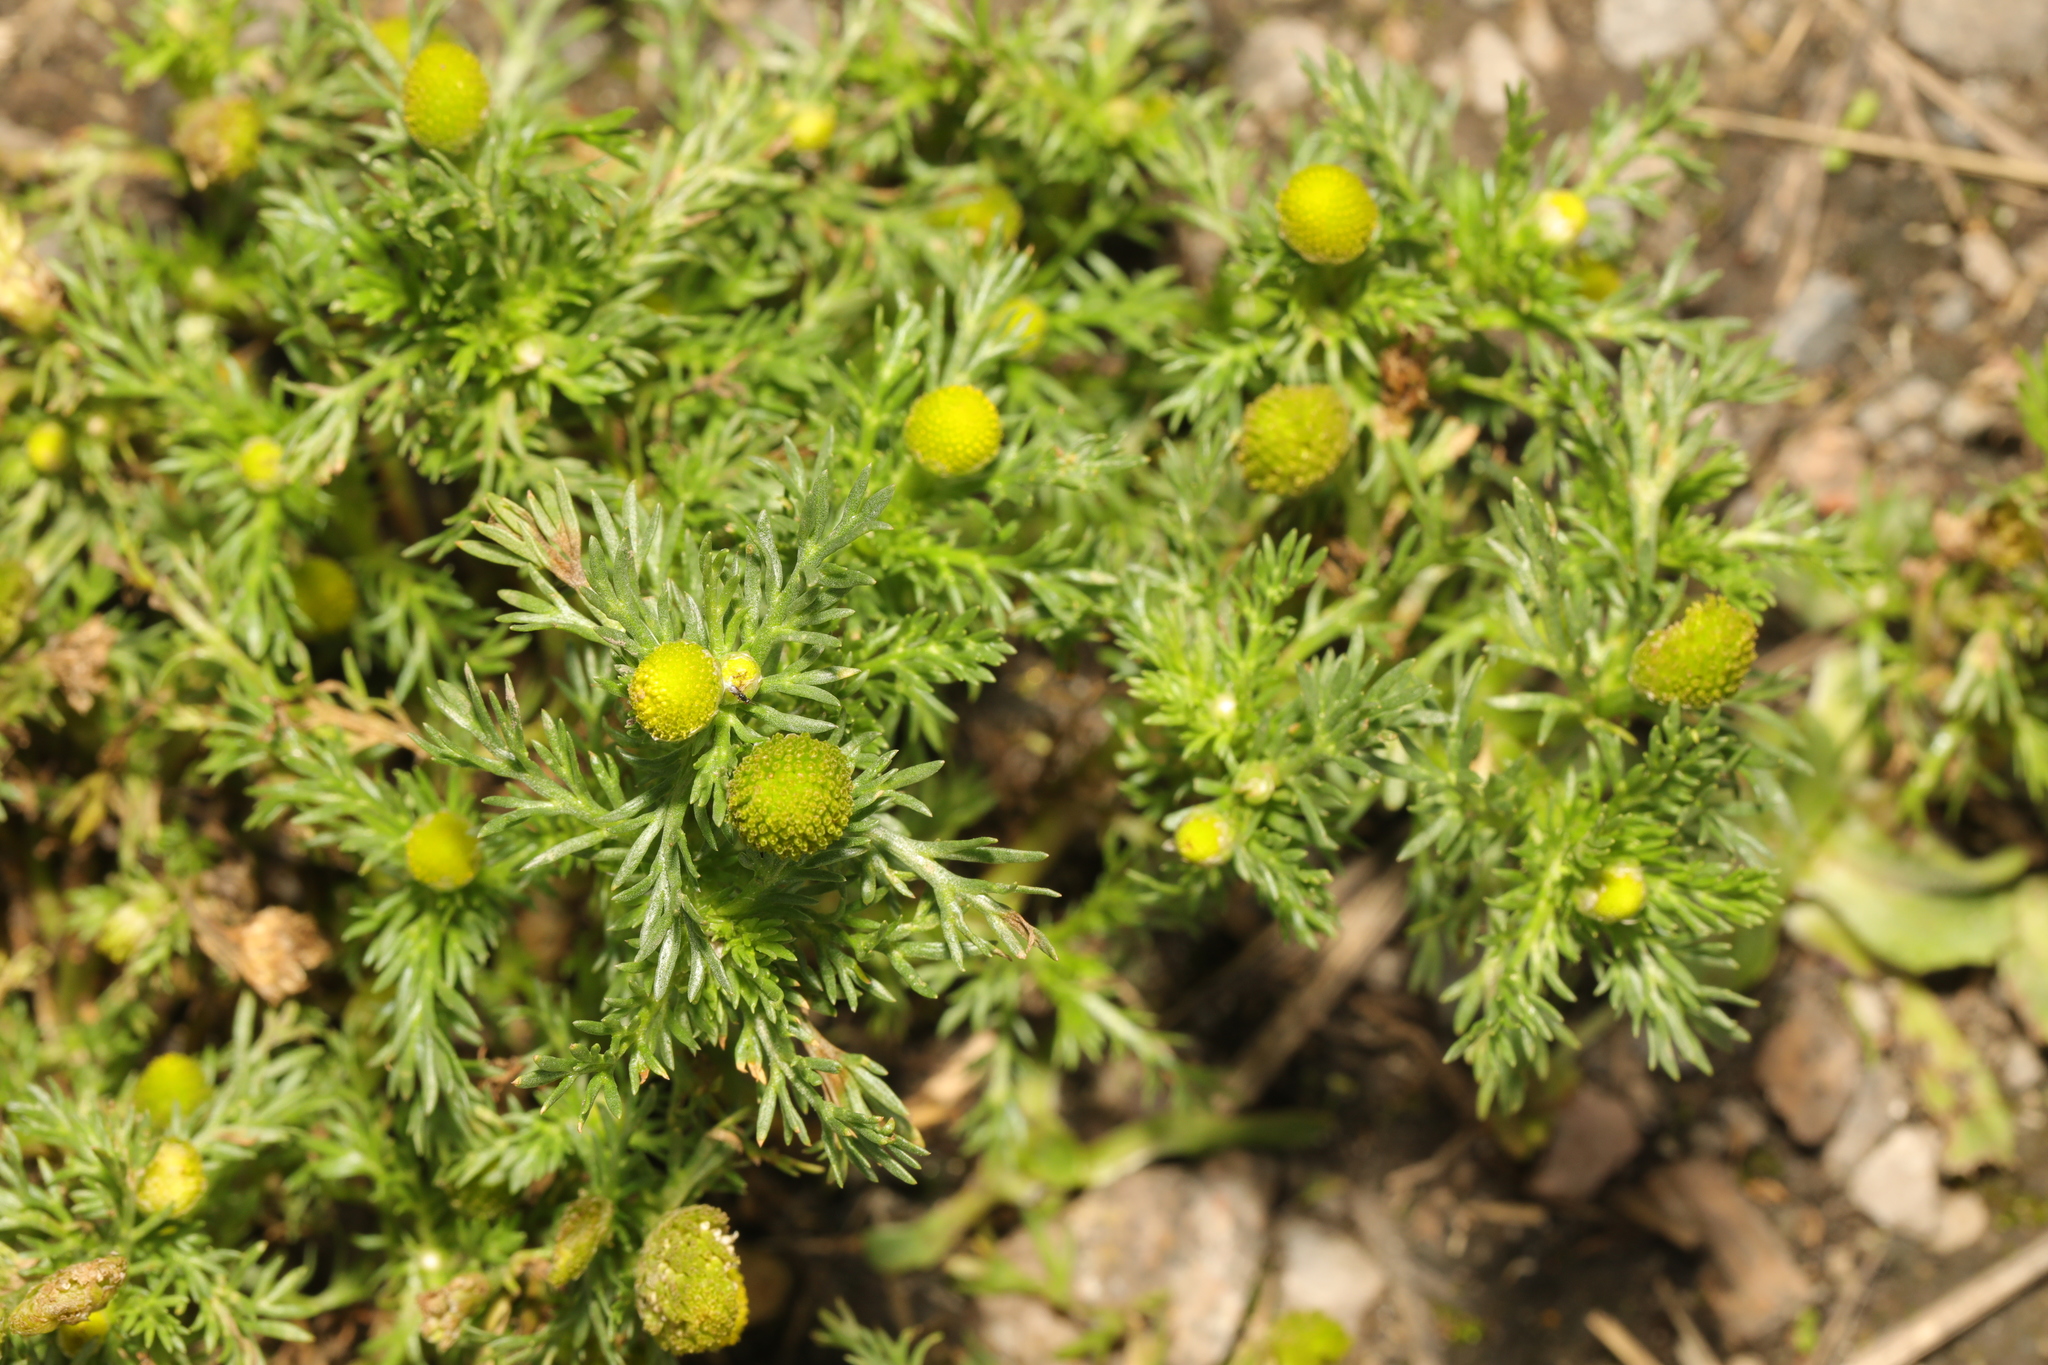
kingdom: Plantae
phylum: Tracheophyta
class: Magnoliopsida
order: Asterales
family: Asteraceae
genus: Matricaria
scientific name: Matricaria discoidea
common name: Disc mayweed
